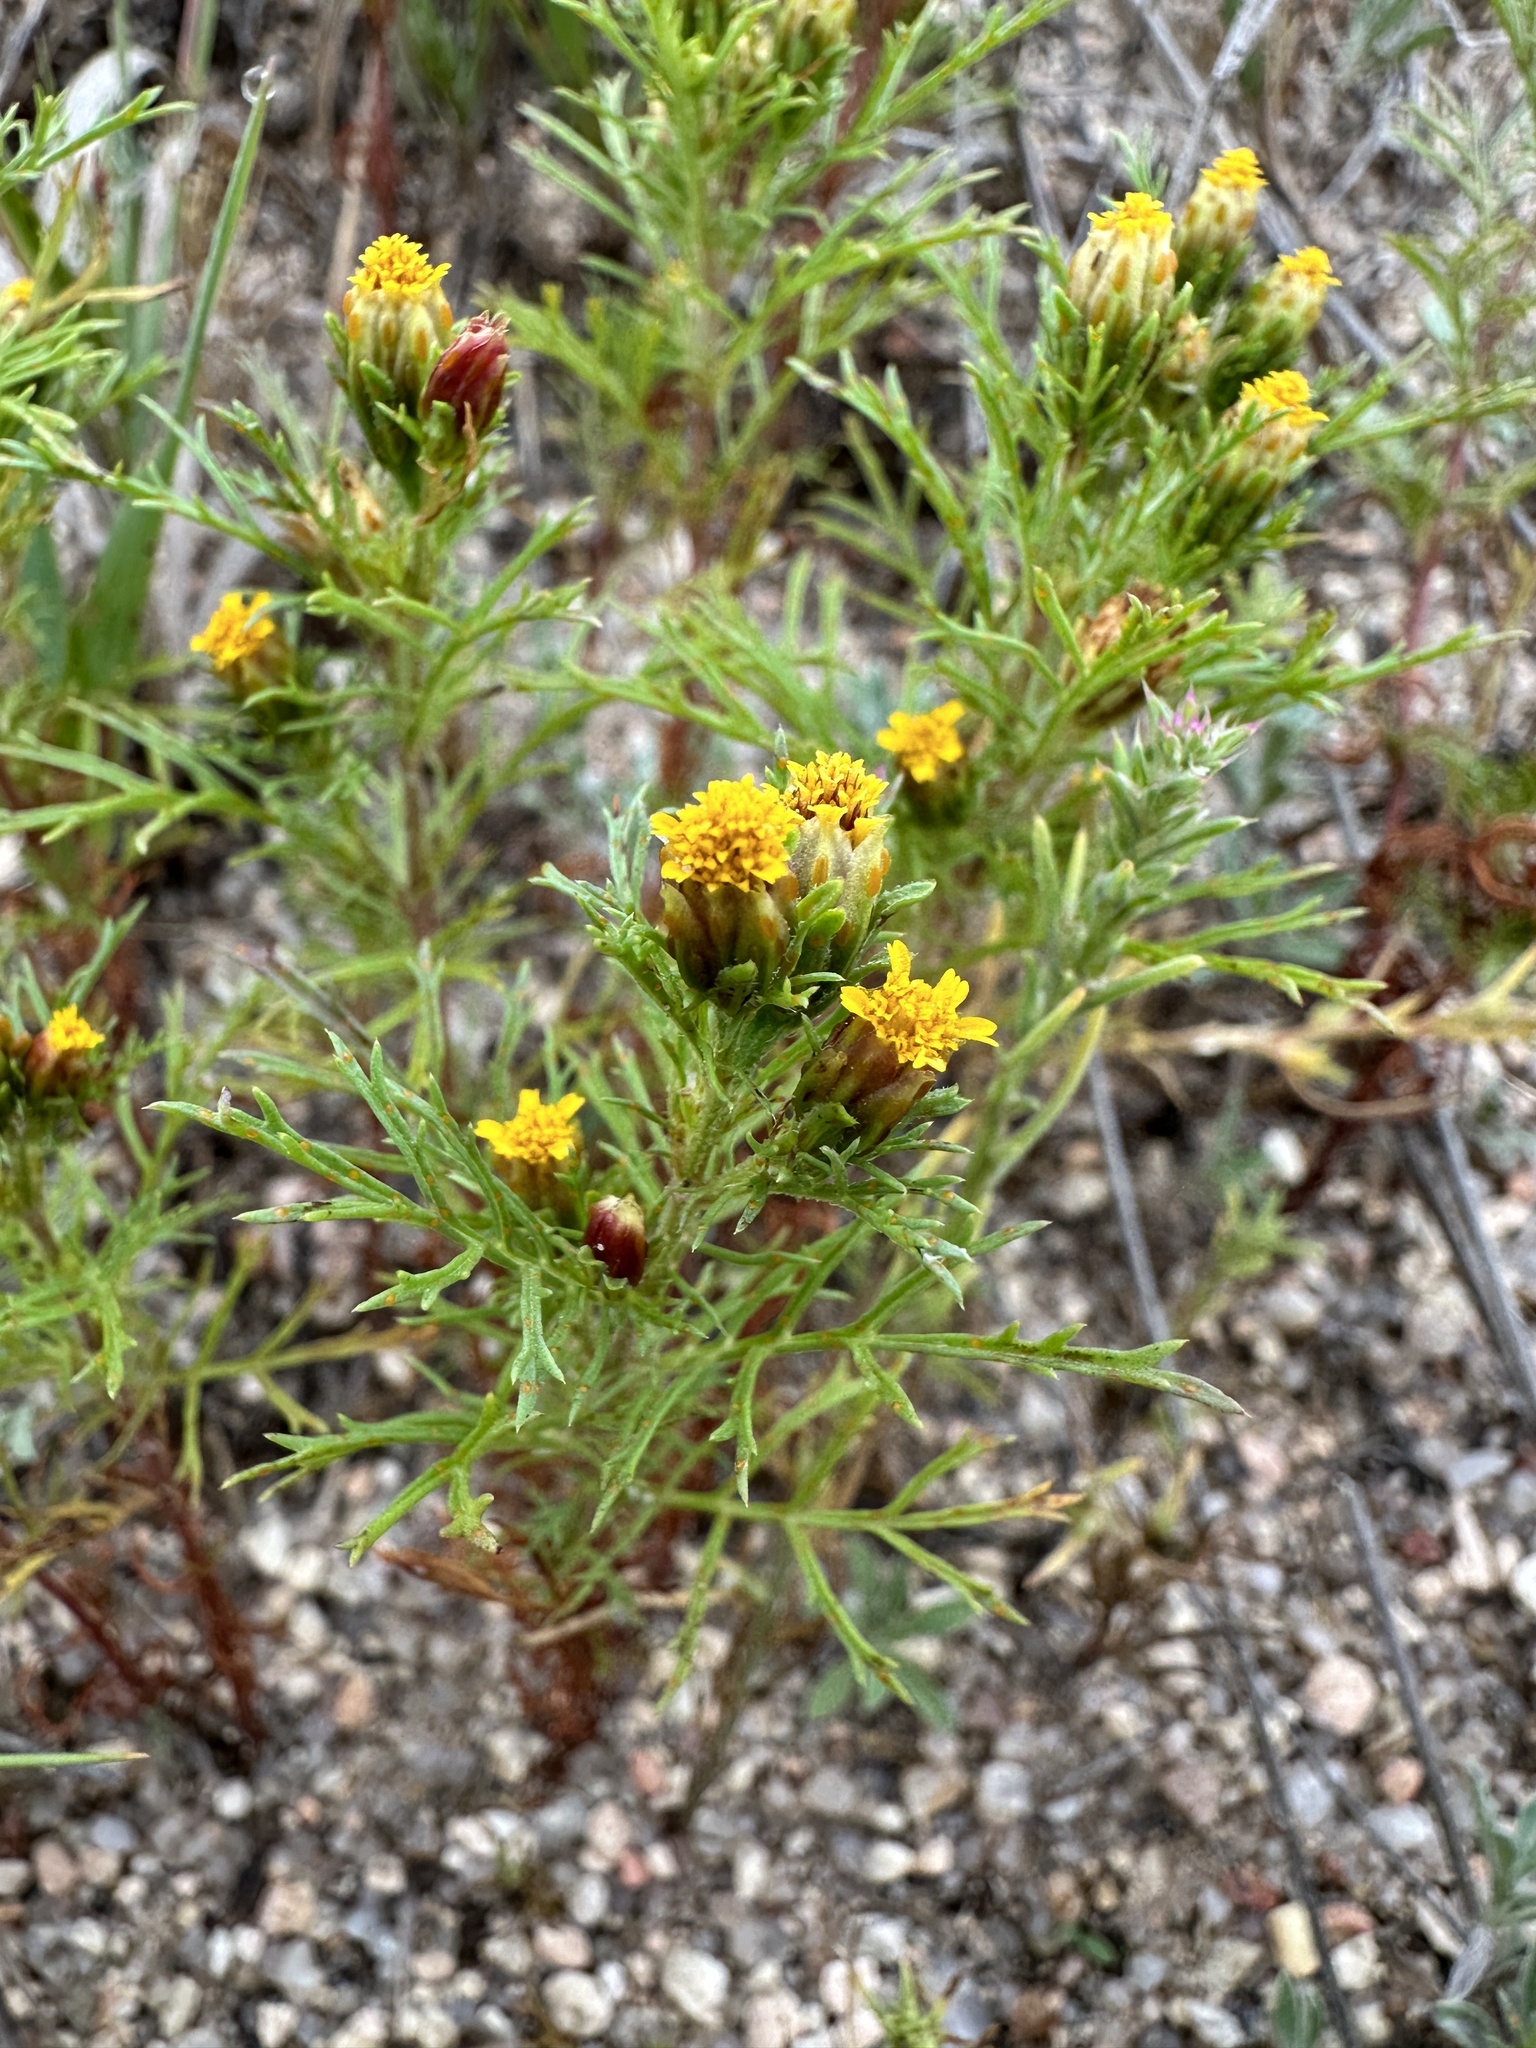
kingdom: Plantae
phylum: Tracheophyta
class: Magnoliopsida
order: Asterales
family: Asteraceae
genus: Dyssodia
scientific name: Dyssodia papposa
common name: Dogweed
